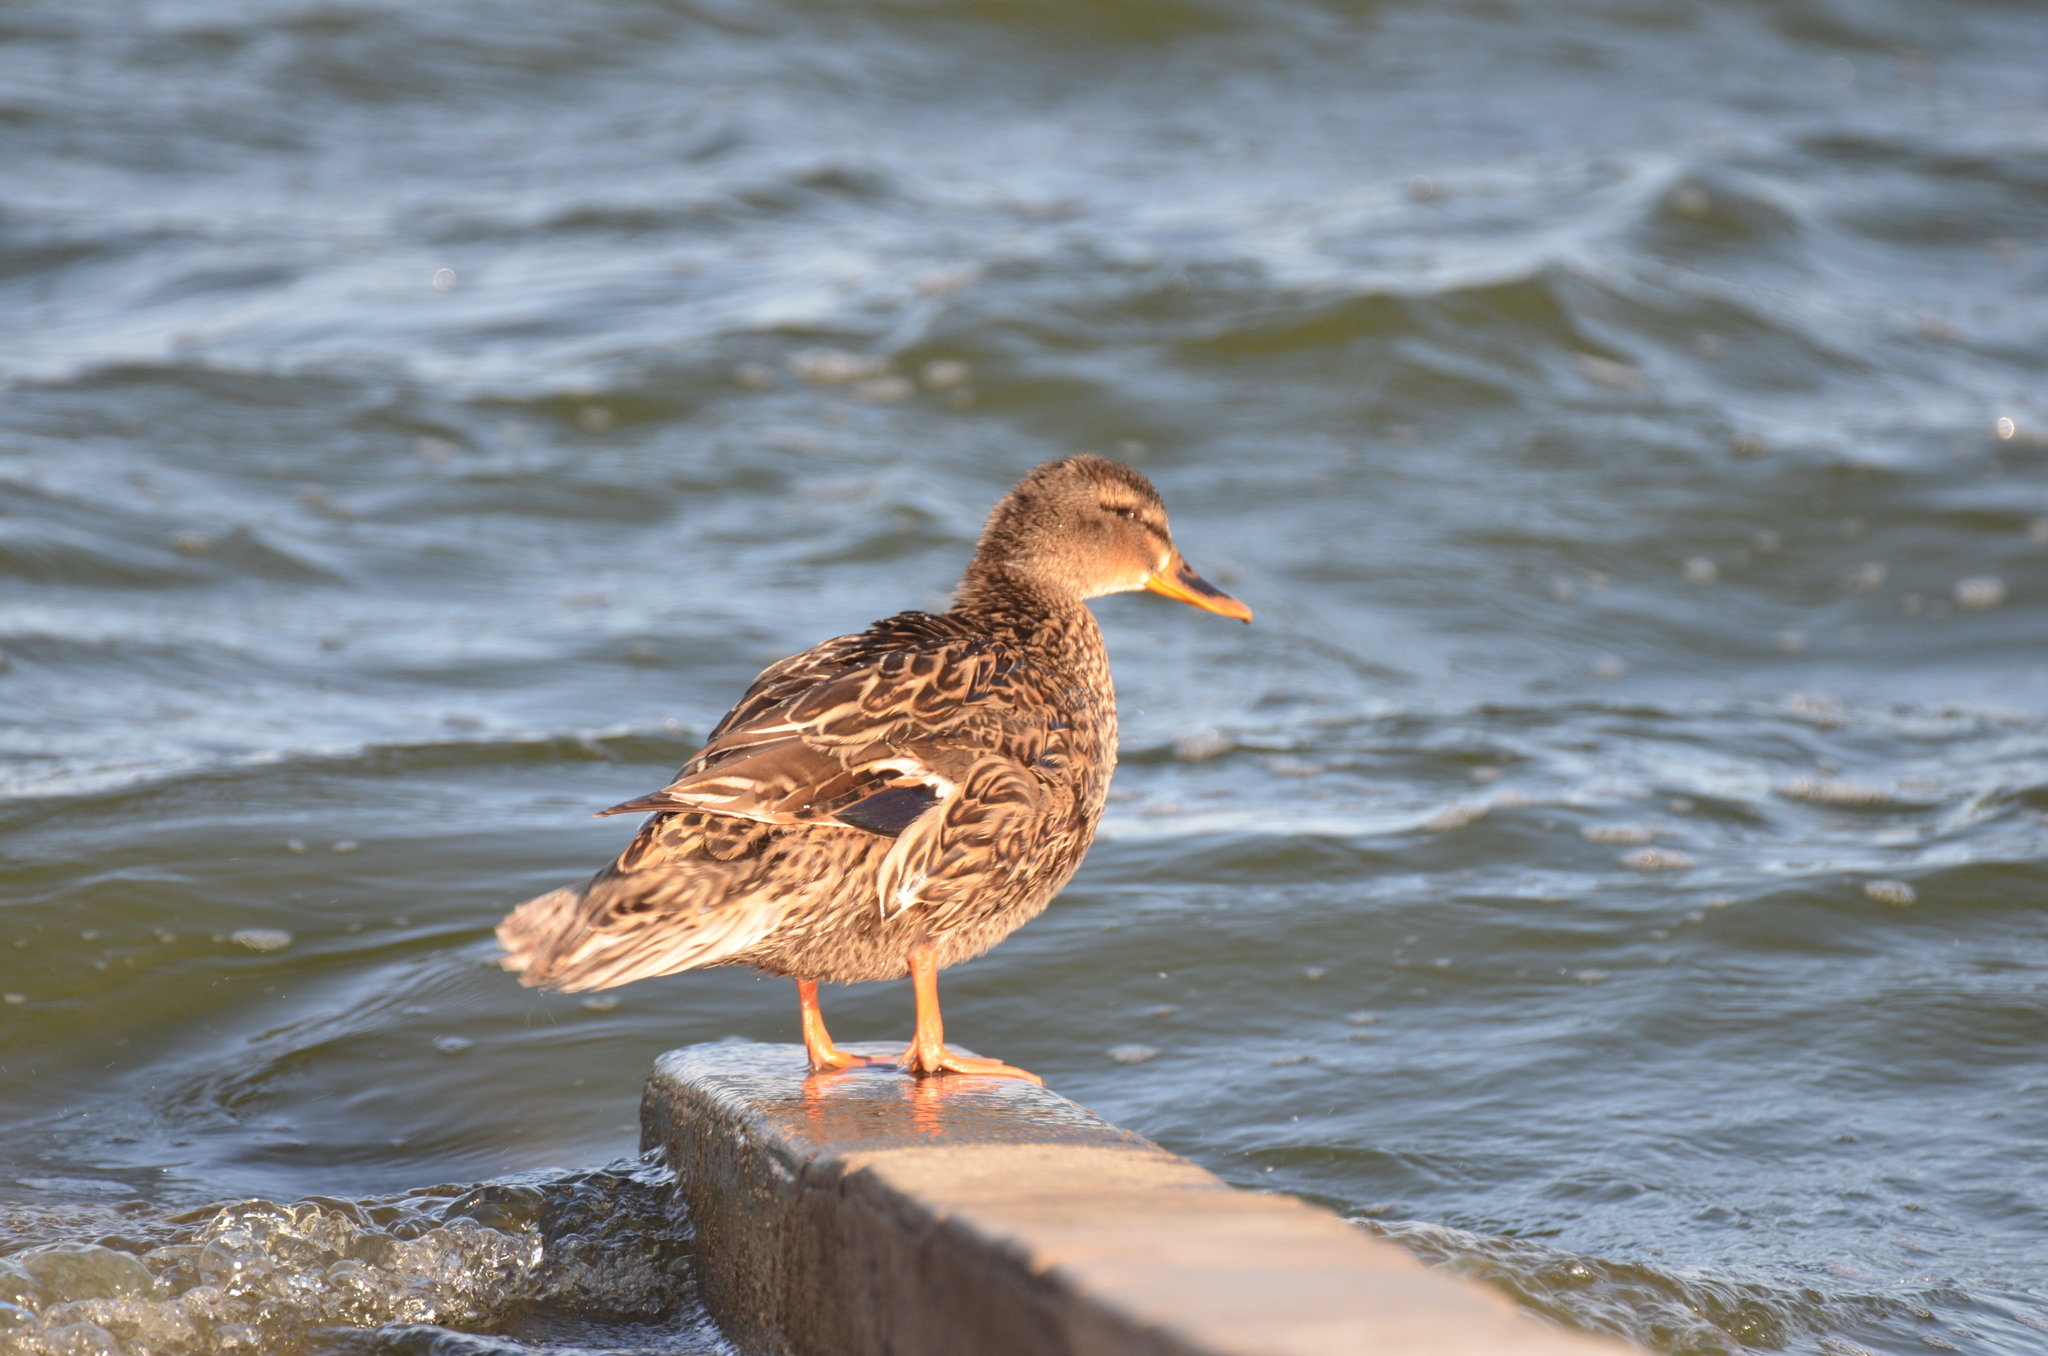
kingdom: Animalia
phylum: Chordata
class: Aves
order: Anseriformes
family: Anatidae
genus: Anas
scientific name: Anas platyrhynchos
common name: Mallard
